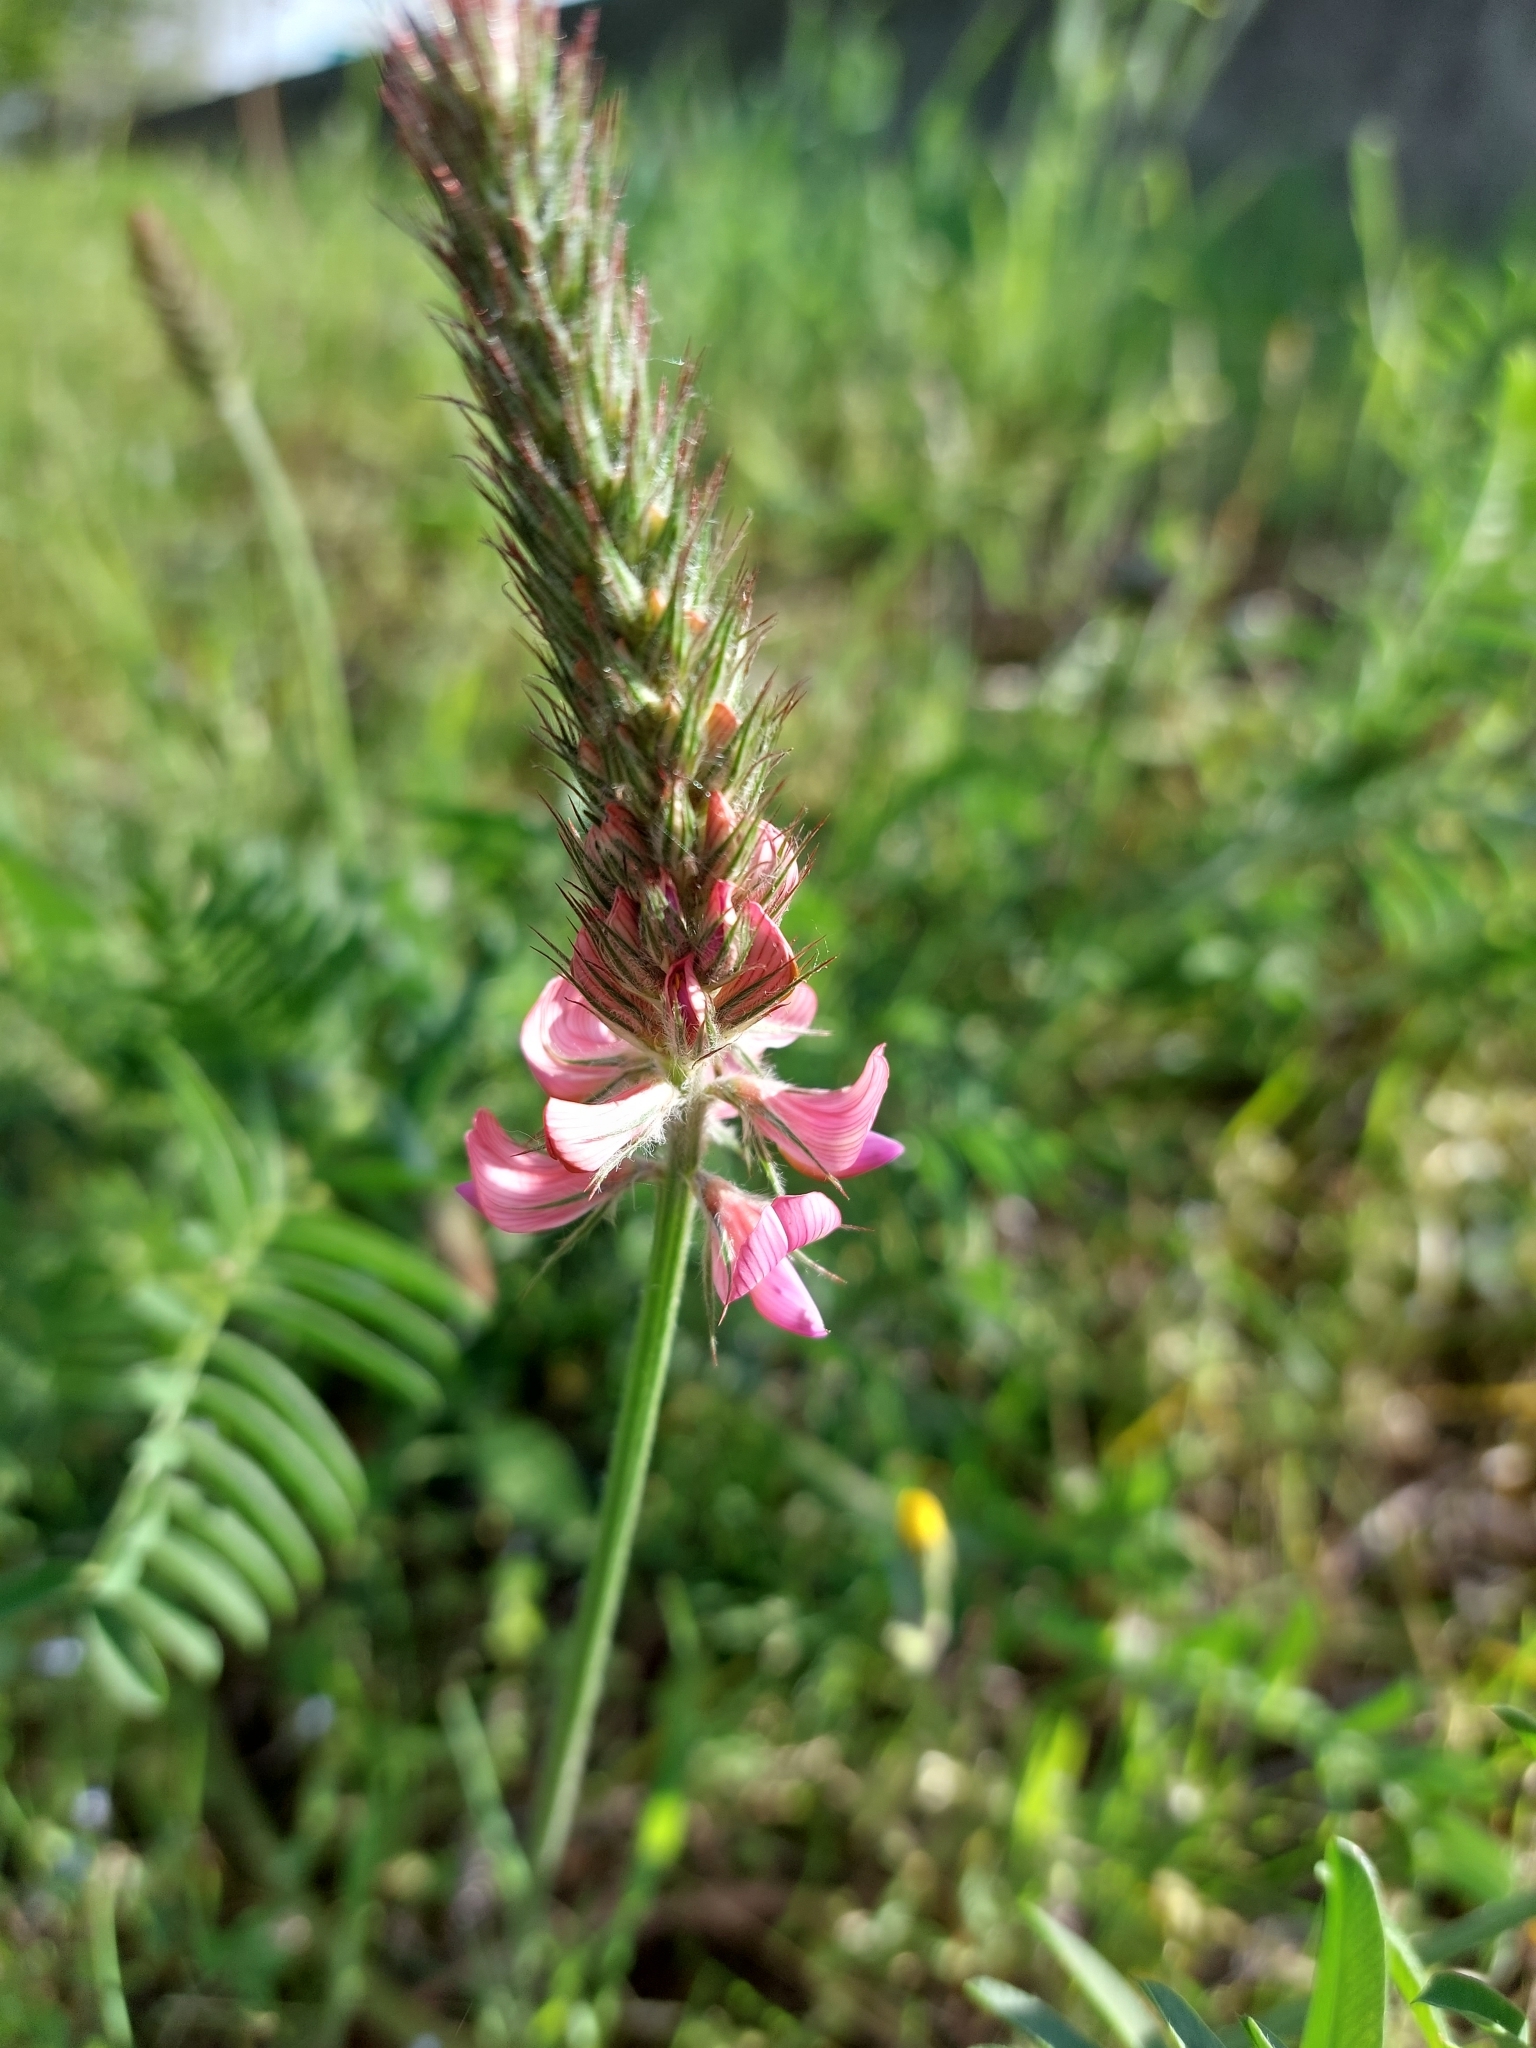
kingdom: Plantae
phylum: Tracheophyta
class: Magnoliopsida
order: Fabales
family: Fabaceae
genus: Onobrychis
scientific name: Onobrychis viciifolia
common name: Sainfoin
